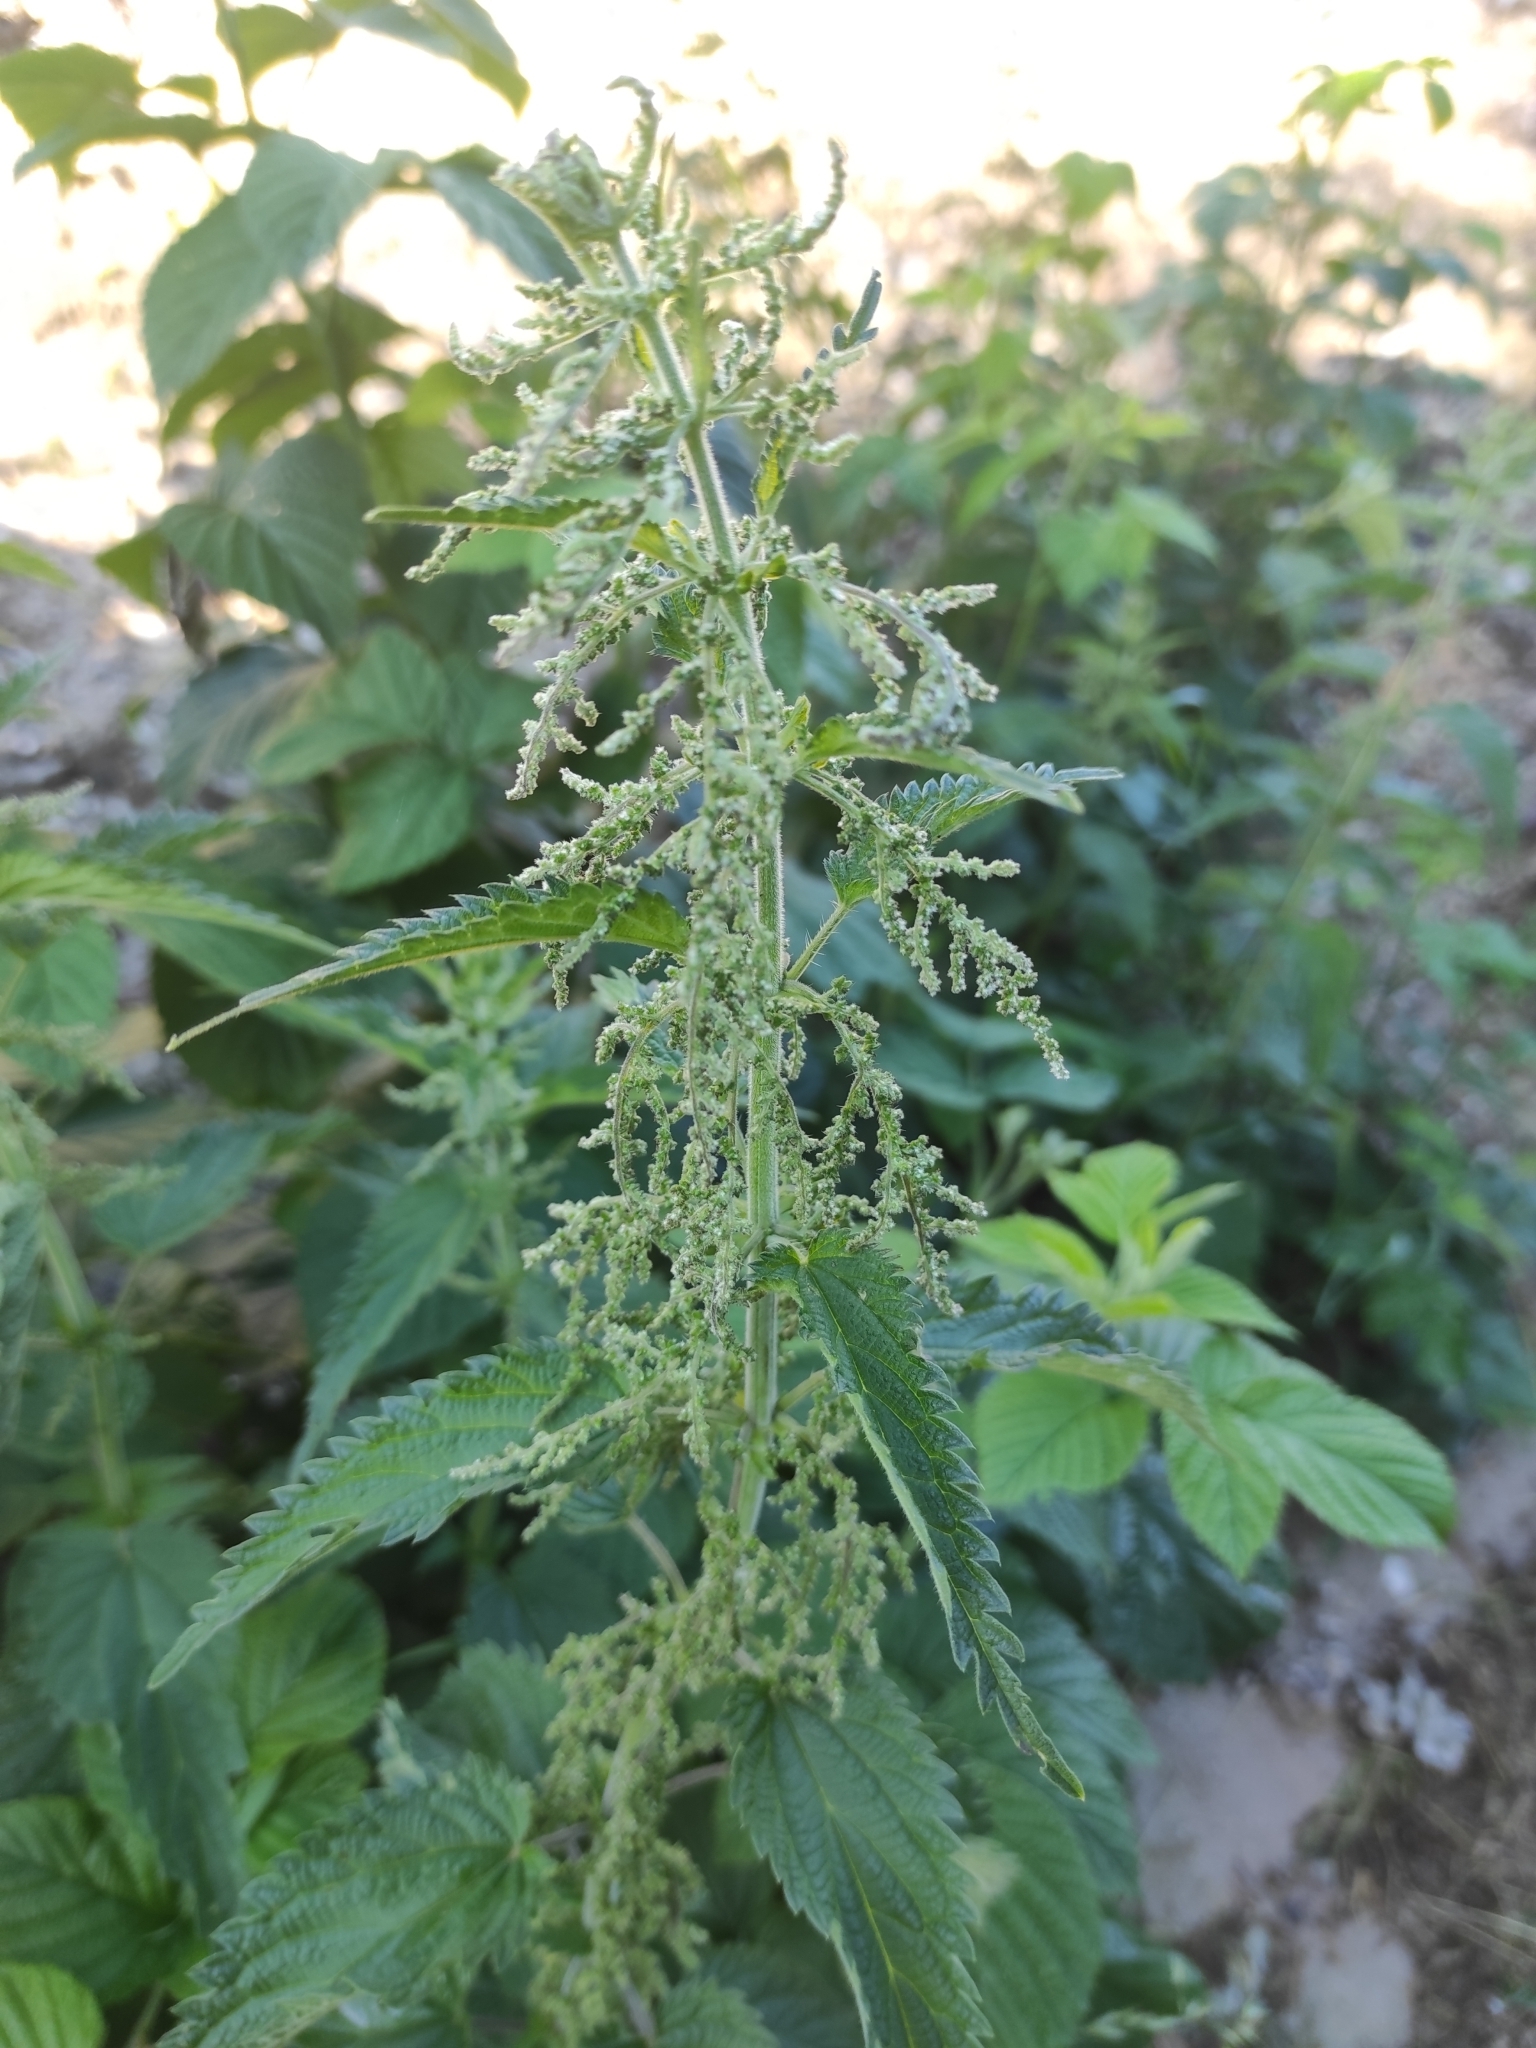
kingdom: Plantae
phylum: Tracheophyta
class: Magnoliopsida
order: Rosales
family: Urticaceae
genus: Urtica
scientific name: Urtica dioica
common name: Common nettle
